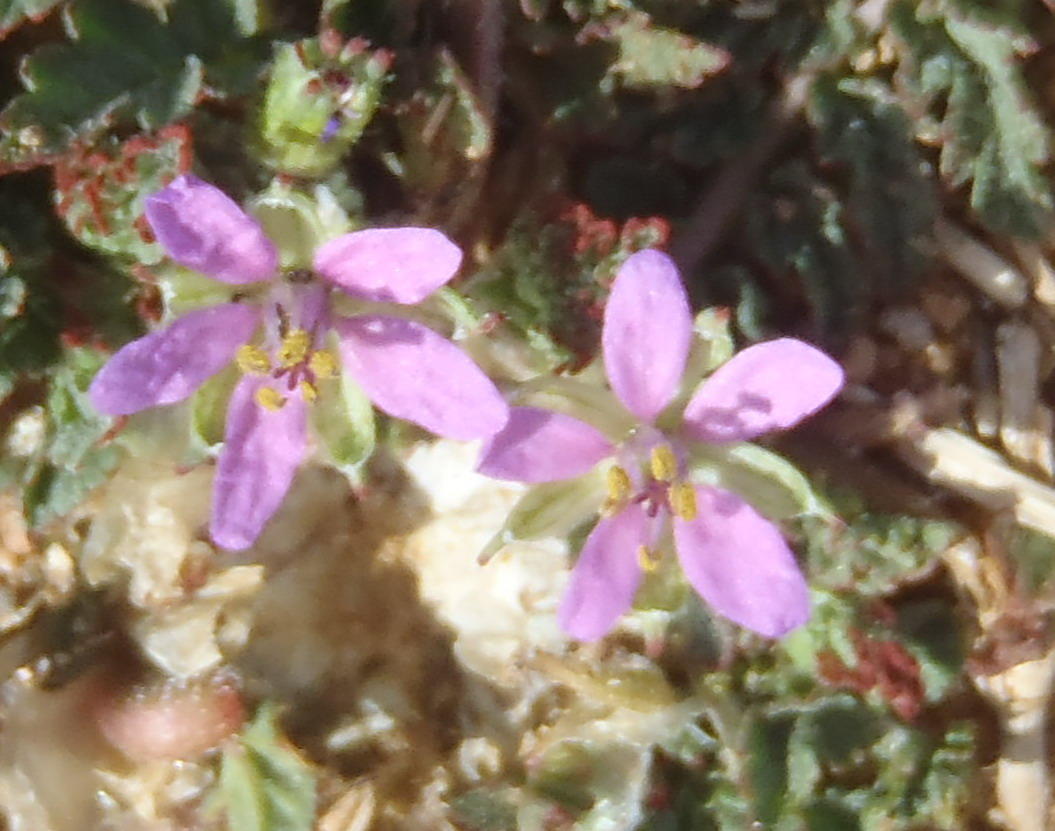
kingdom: Plantae
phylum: Tracheophyta
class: Magnoliopsida
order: Geraniales
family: Geraniaceae
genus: Erodium
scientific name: Erodium cicutarium
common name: Common stork's-bill
